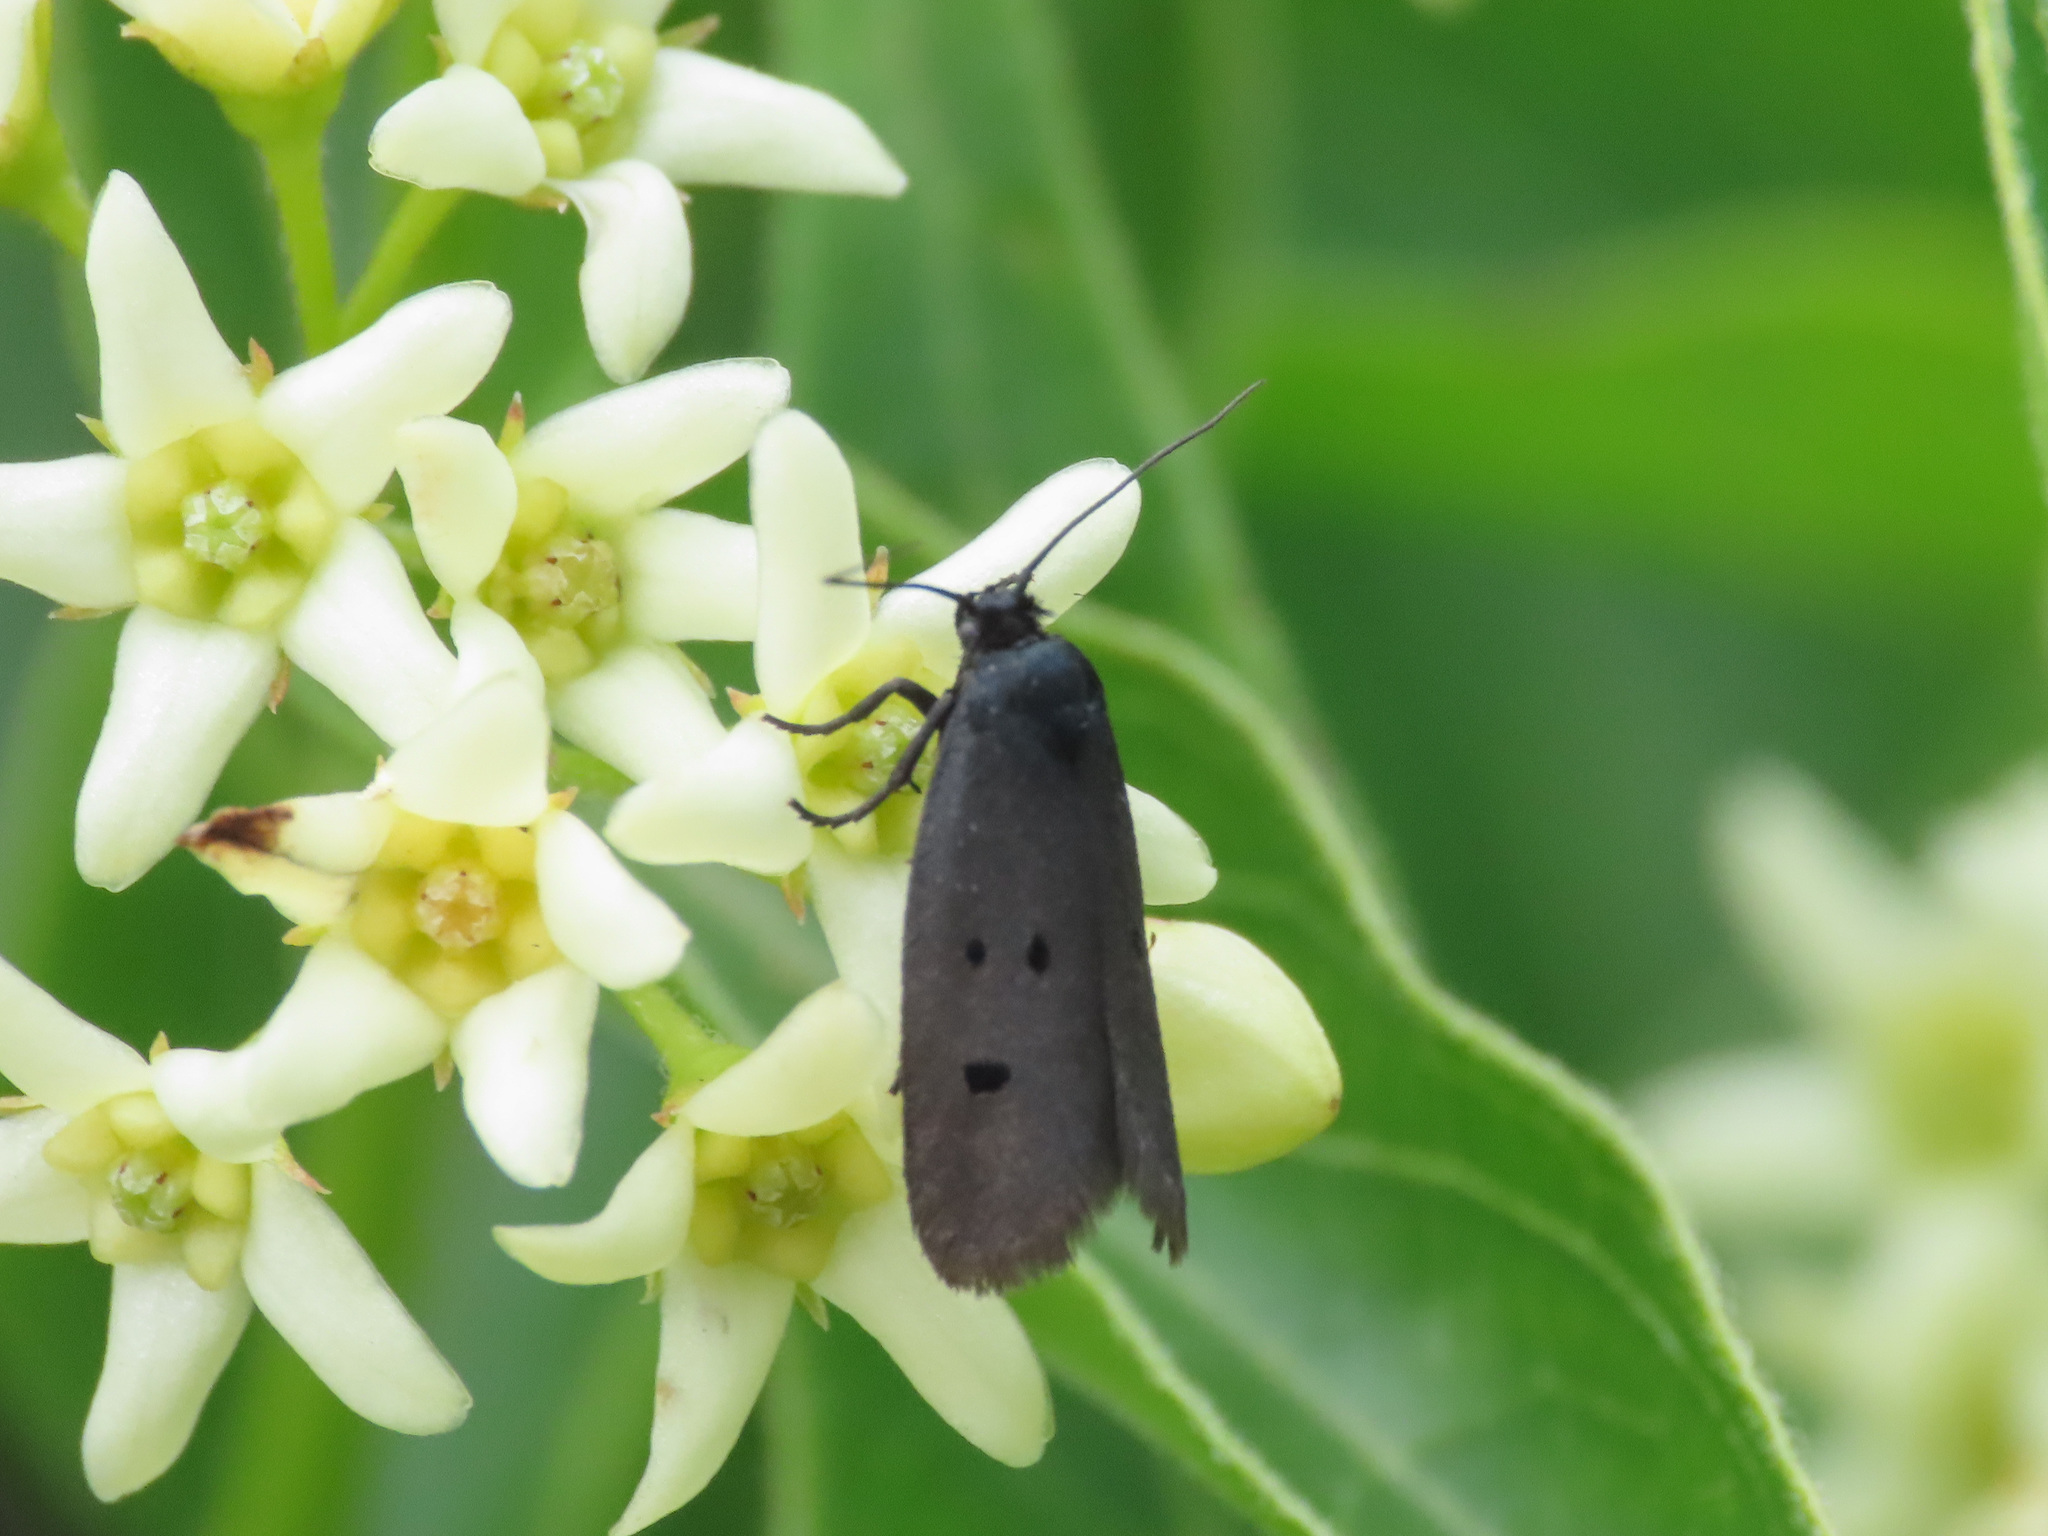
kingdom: Animalia
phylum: Arthropoda
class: Insecta
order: Lepidoptera
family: Ethmiidae
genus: Ethmia
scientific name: Ethmia chrysopyga
